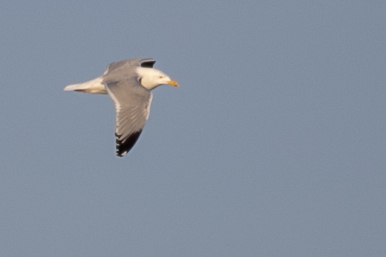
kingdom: Animalia
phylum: Chordata
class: Aves
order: Charadriiformes
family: Laridae
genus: Larus
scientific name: Larus argentatus
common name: Herring gull
